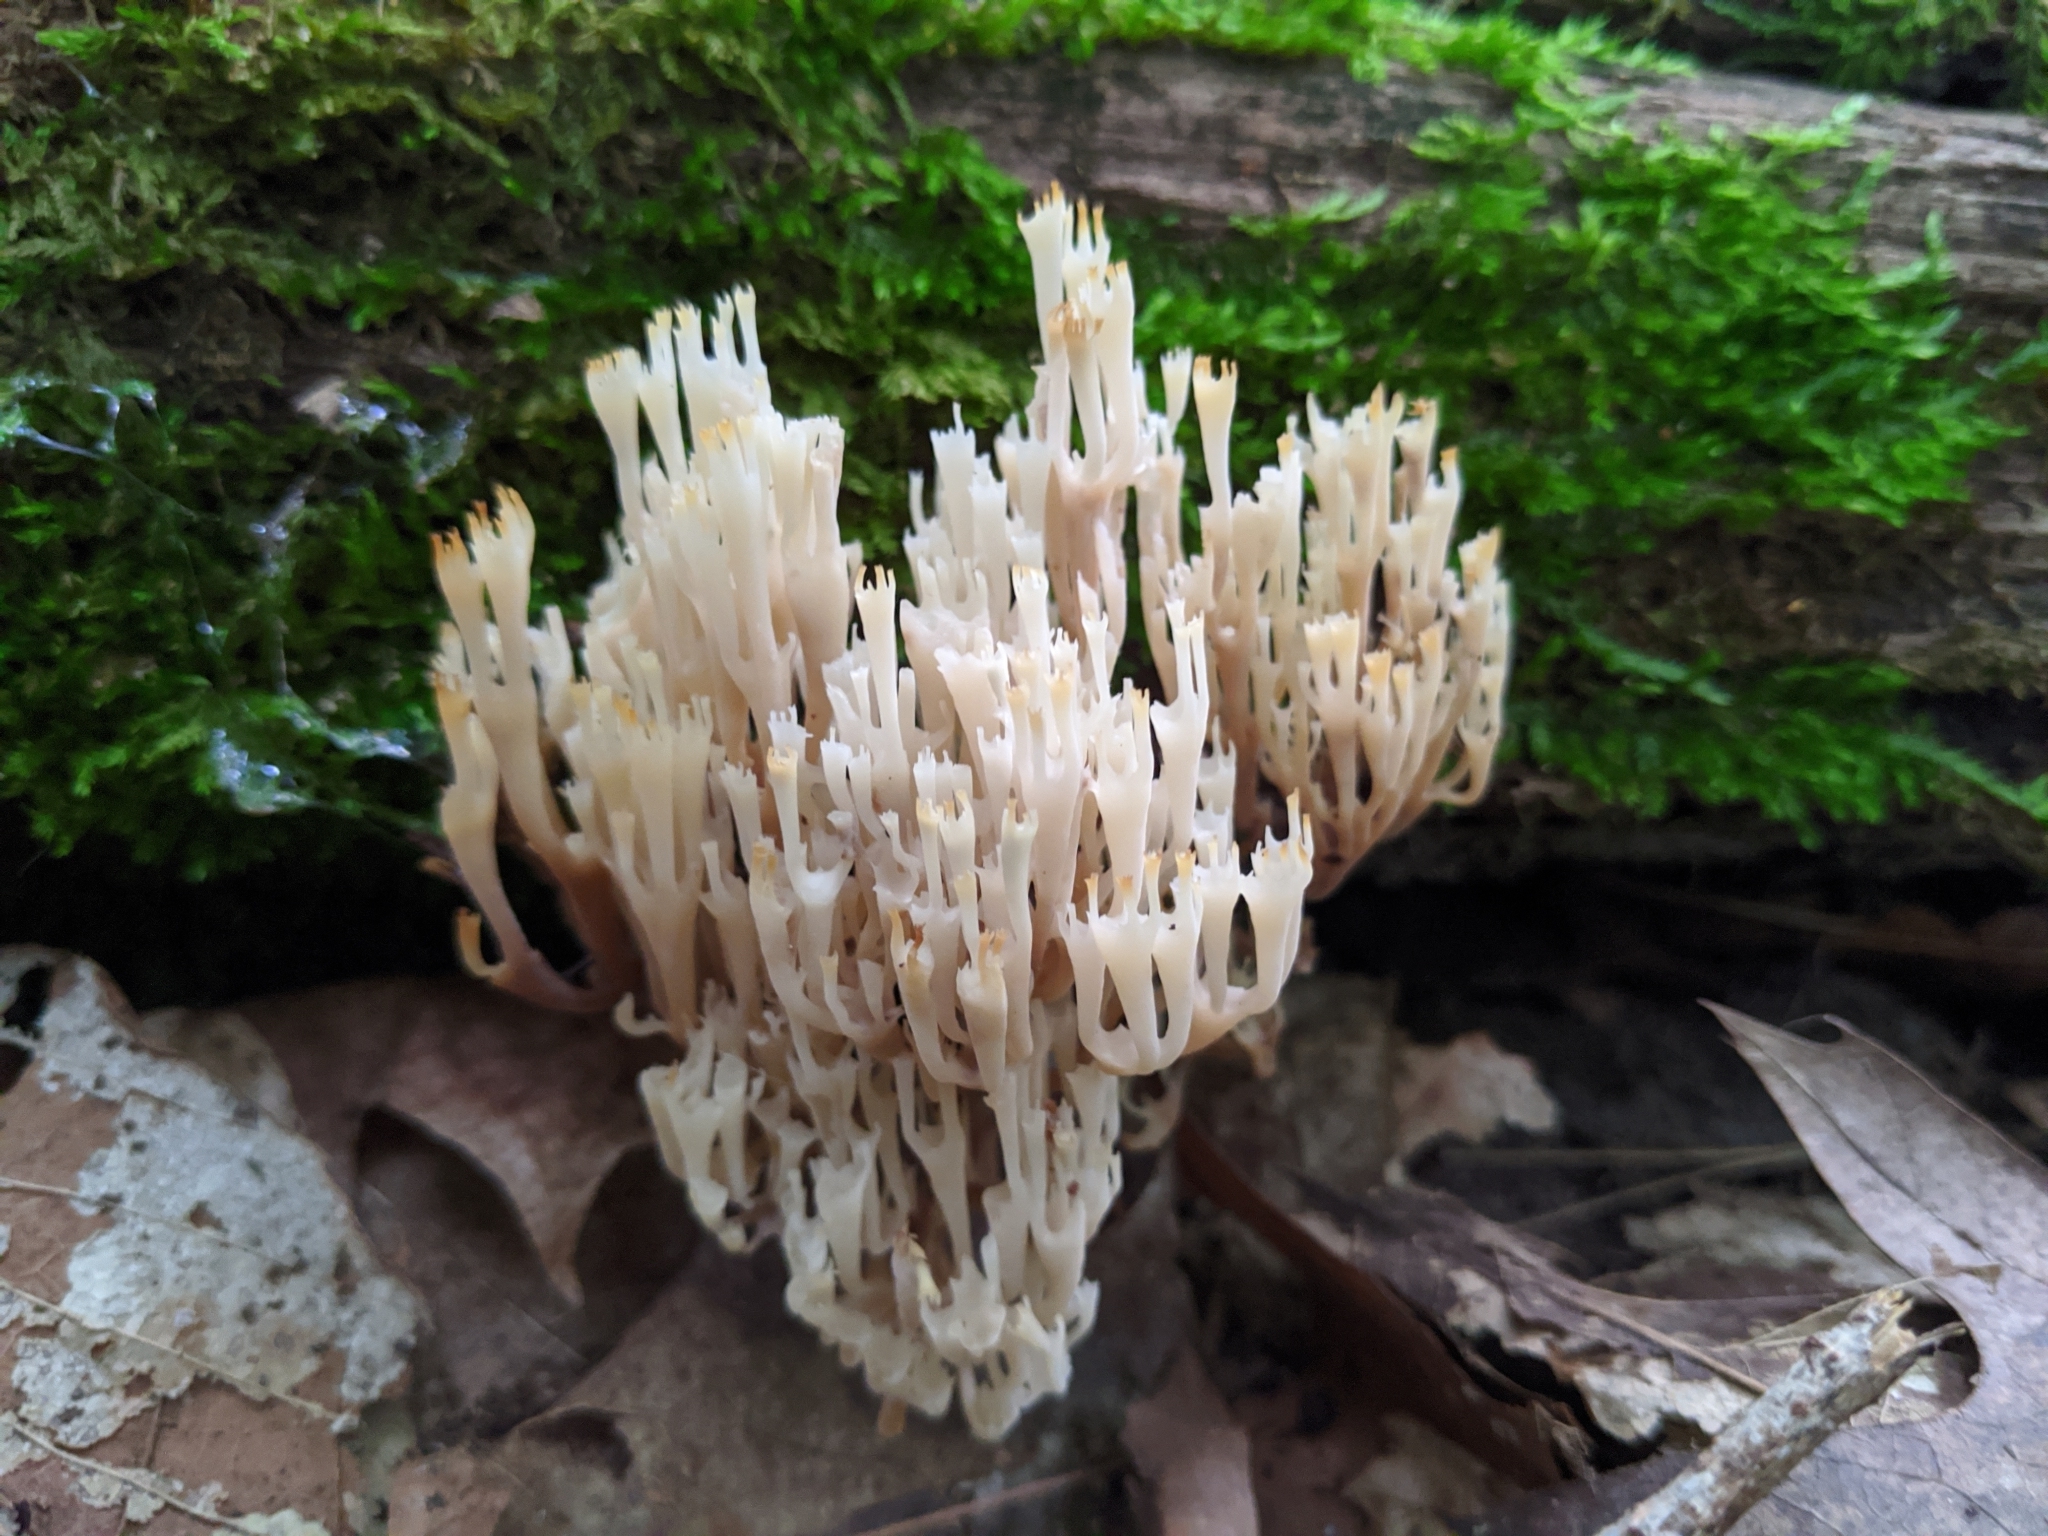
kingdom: Fungi
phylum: Basidiomycota
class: Agaricomycetes
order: Russulales
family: Auriscalpiaceae
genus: Artomyces
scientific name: Artomyces pyxidatus
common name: Crown-tipped coral fungus
